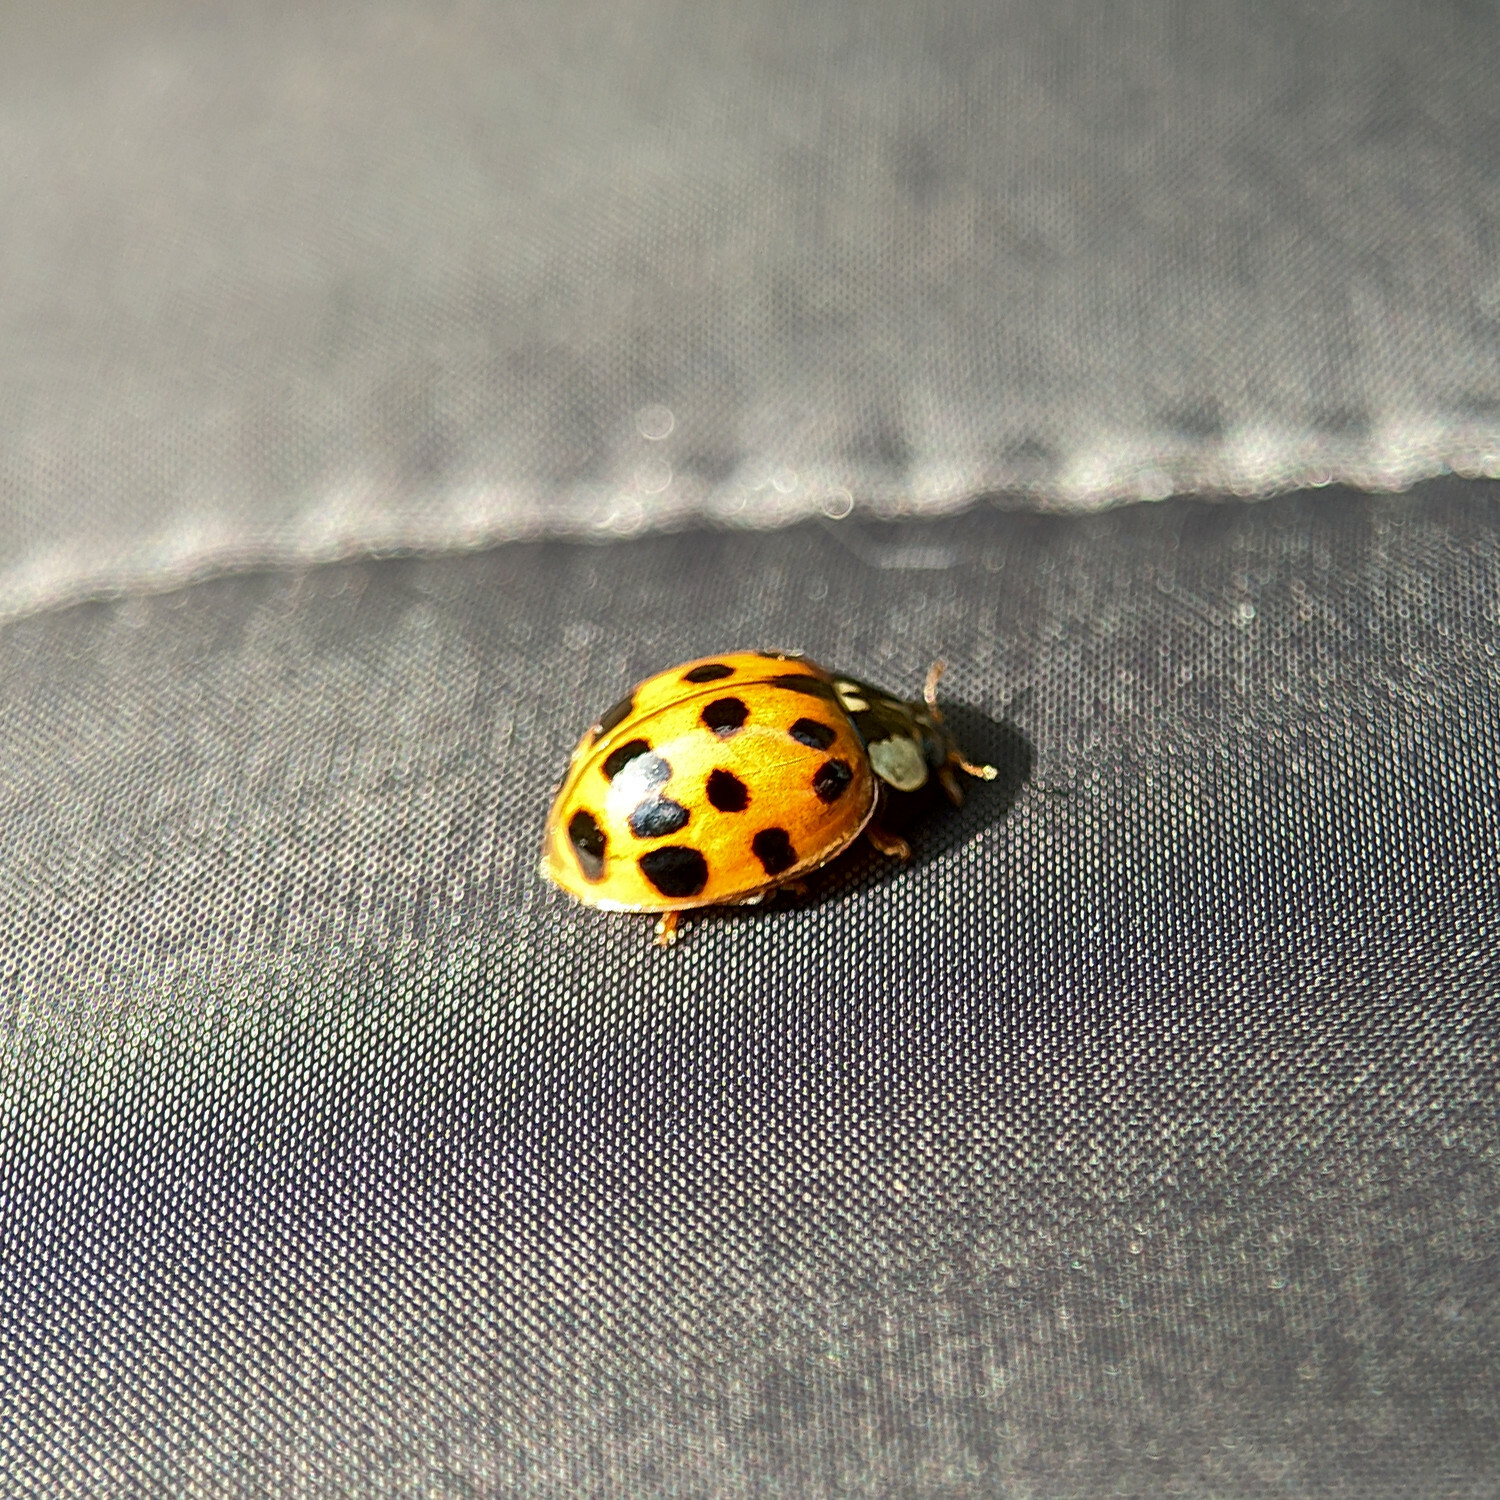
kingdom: Animalia
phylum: Arthropoda
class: Insecta
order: Coleoptera
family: Coccinellidae
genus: Harmonia
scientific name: Harmonia axyridis
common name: Harlequin ladybird
